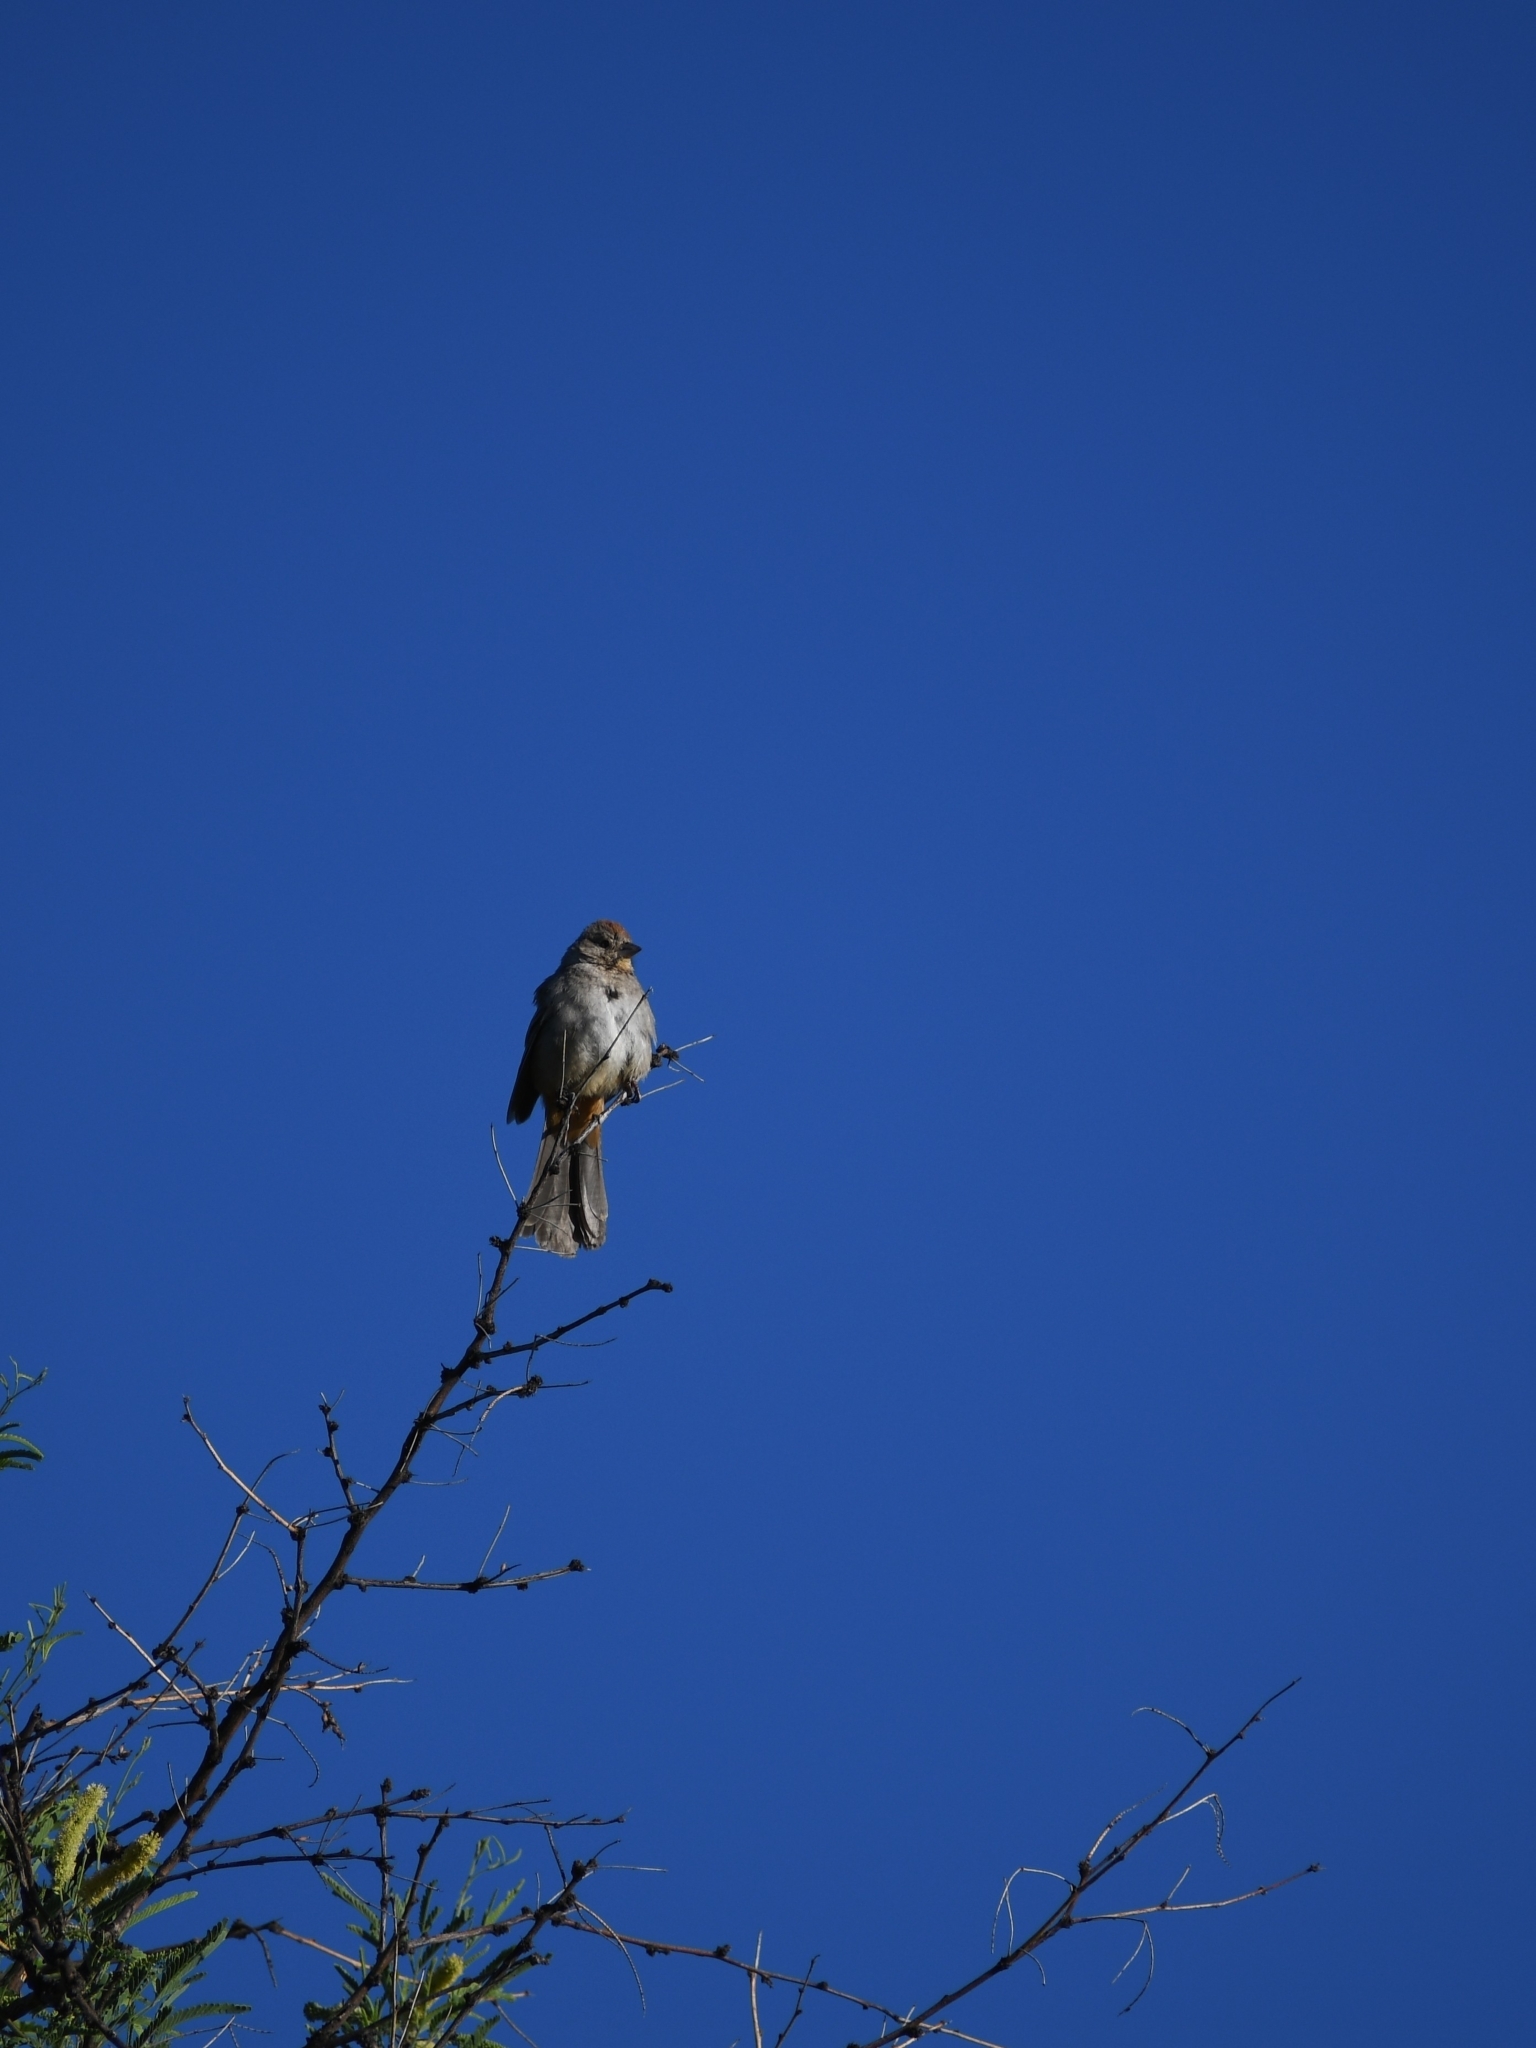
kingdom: Animalia
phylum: Chordata
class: Aves
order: Passeriformes
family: Passerellidae
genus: Melozone
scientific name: Melozone fusca
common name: Canyon towhee
